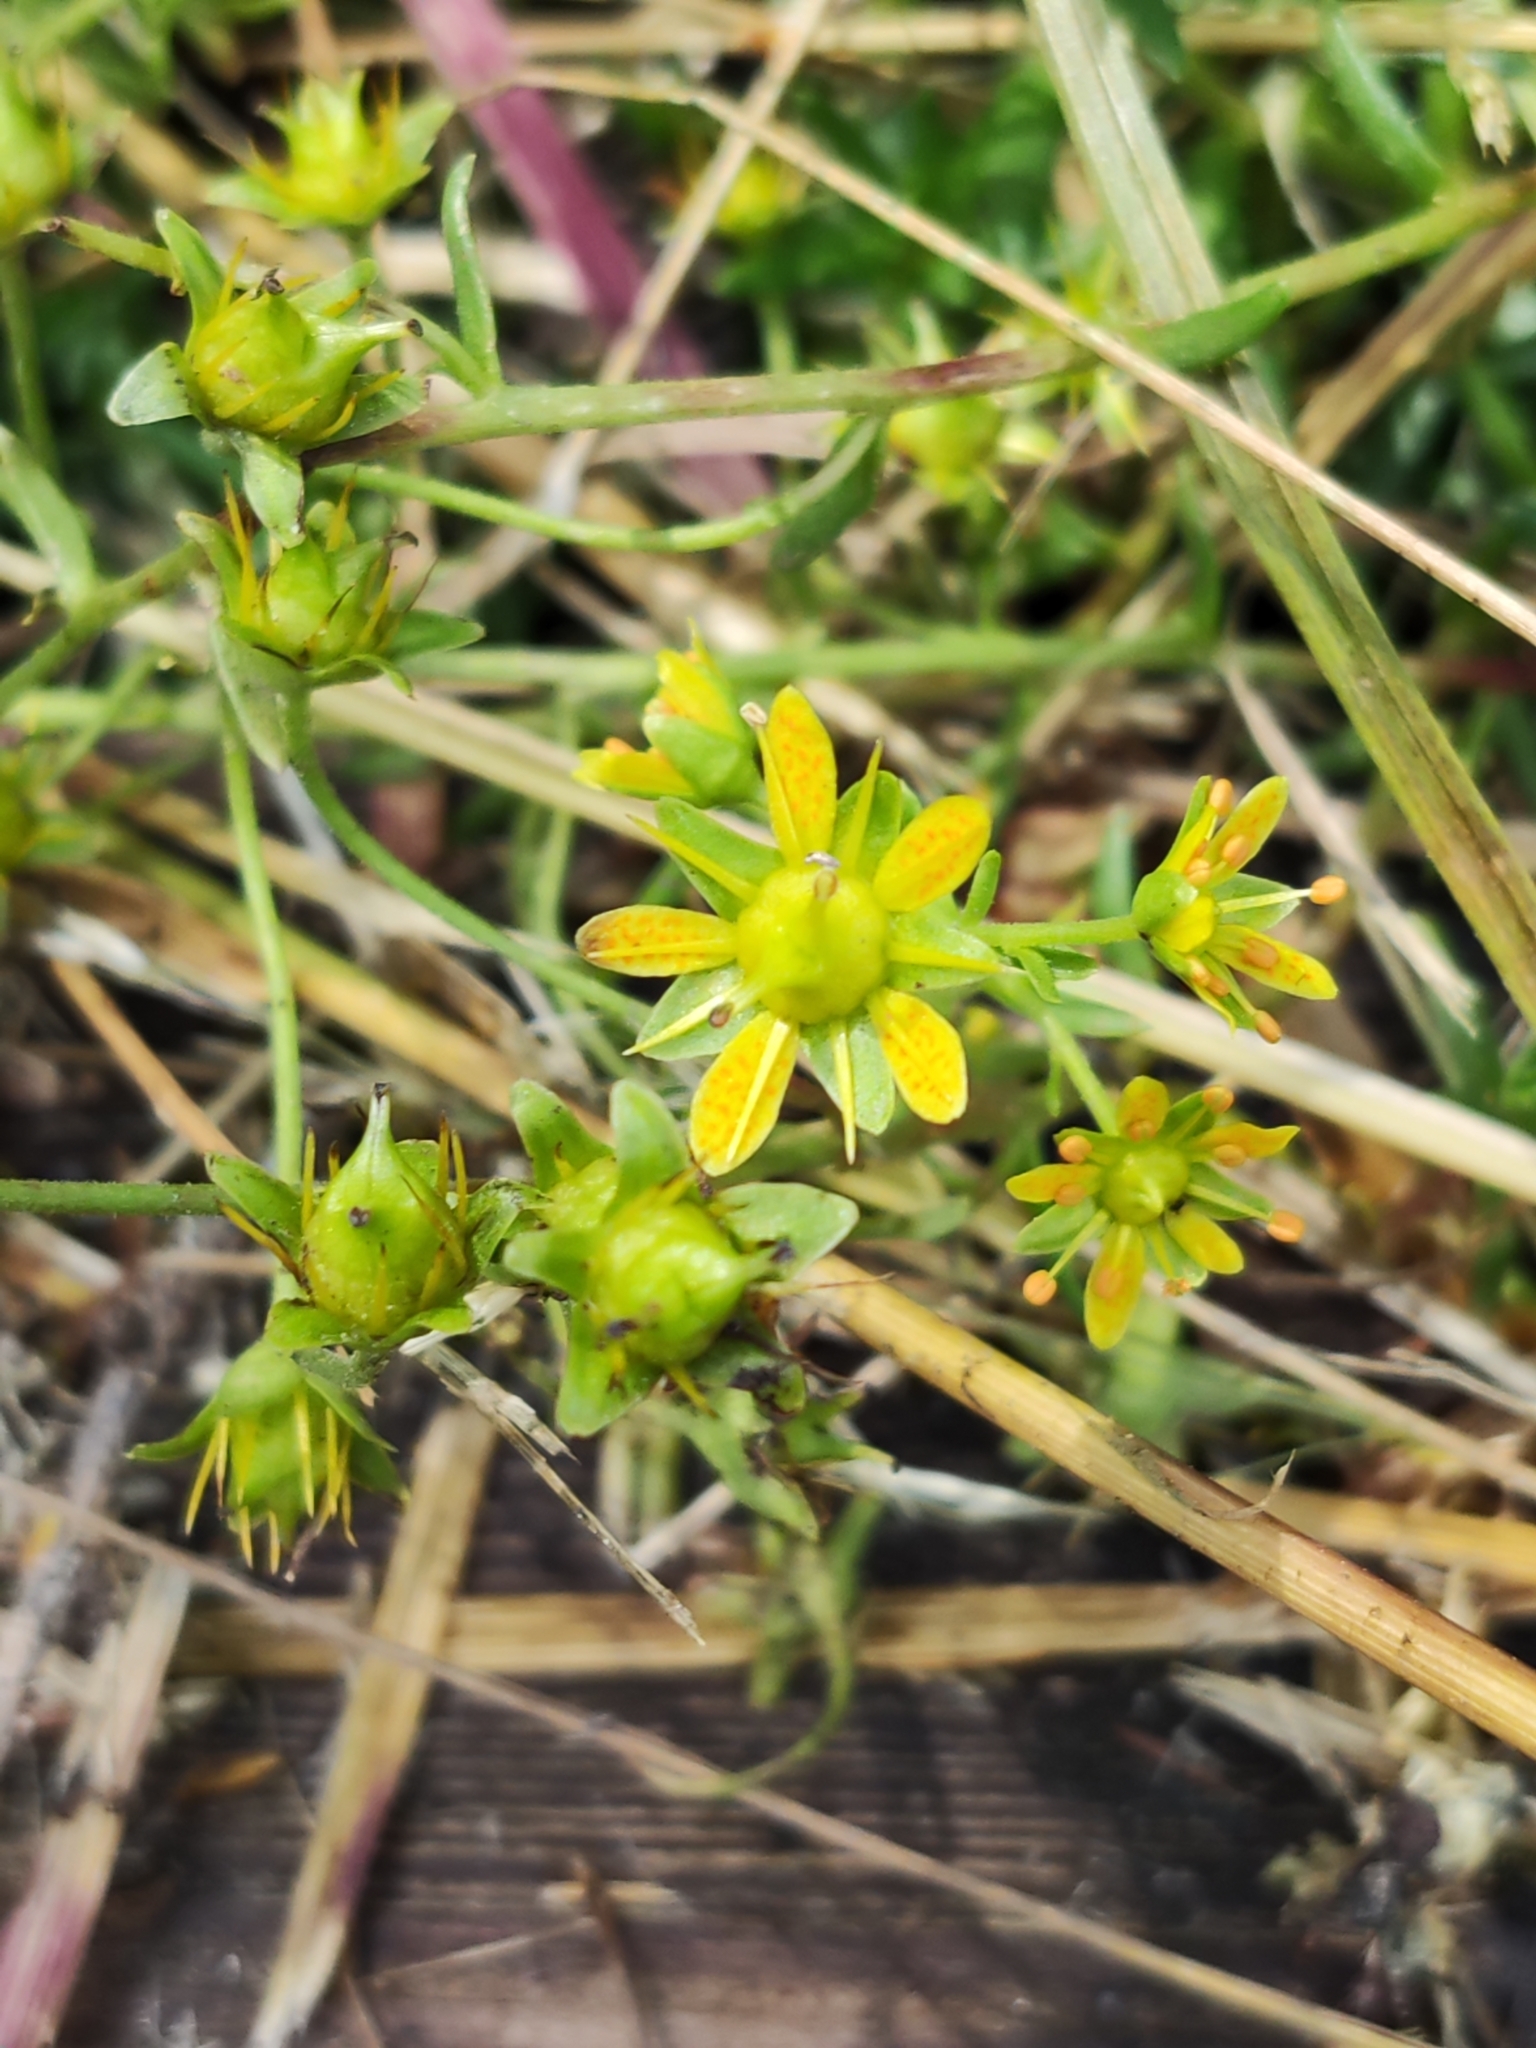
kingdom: Plantae
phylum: Tracheophyta
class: Magnoliopsida
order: Saxifragales
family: Saxifragaceae
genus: Saxifraga
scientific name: Saxifraga aizoides
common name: Yellow mountain saxifrage
